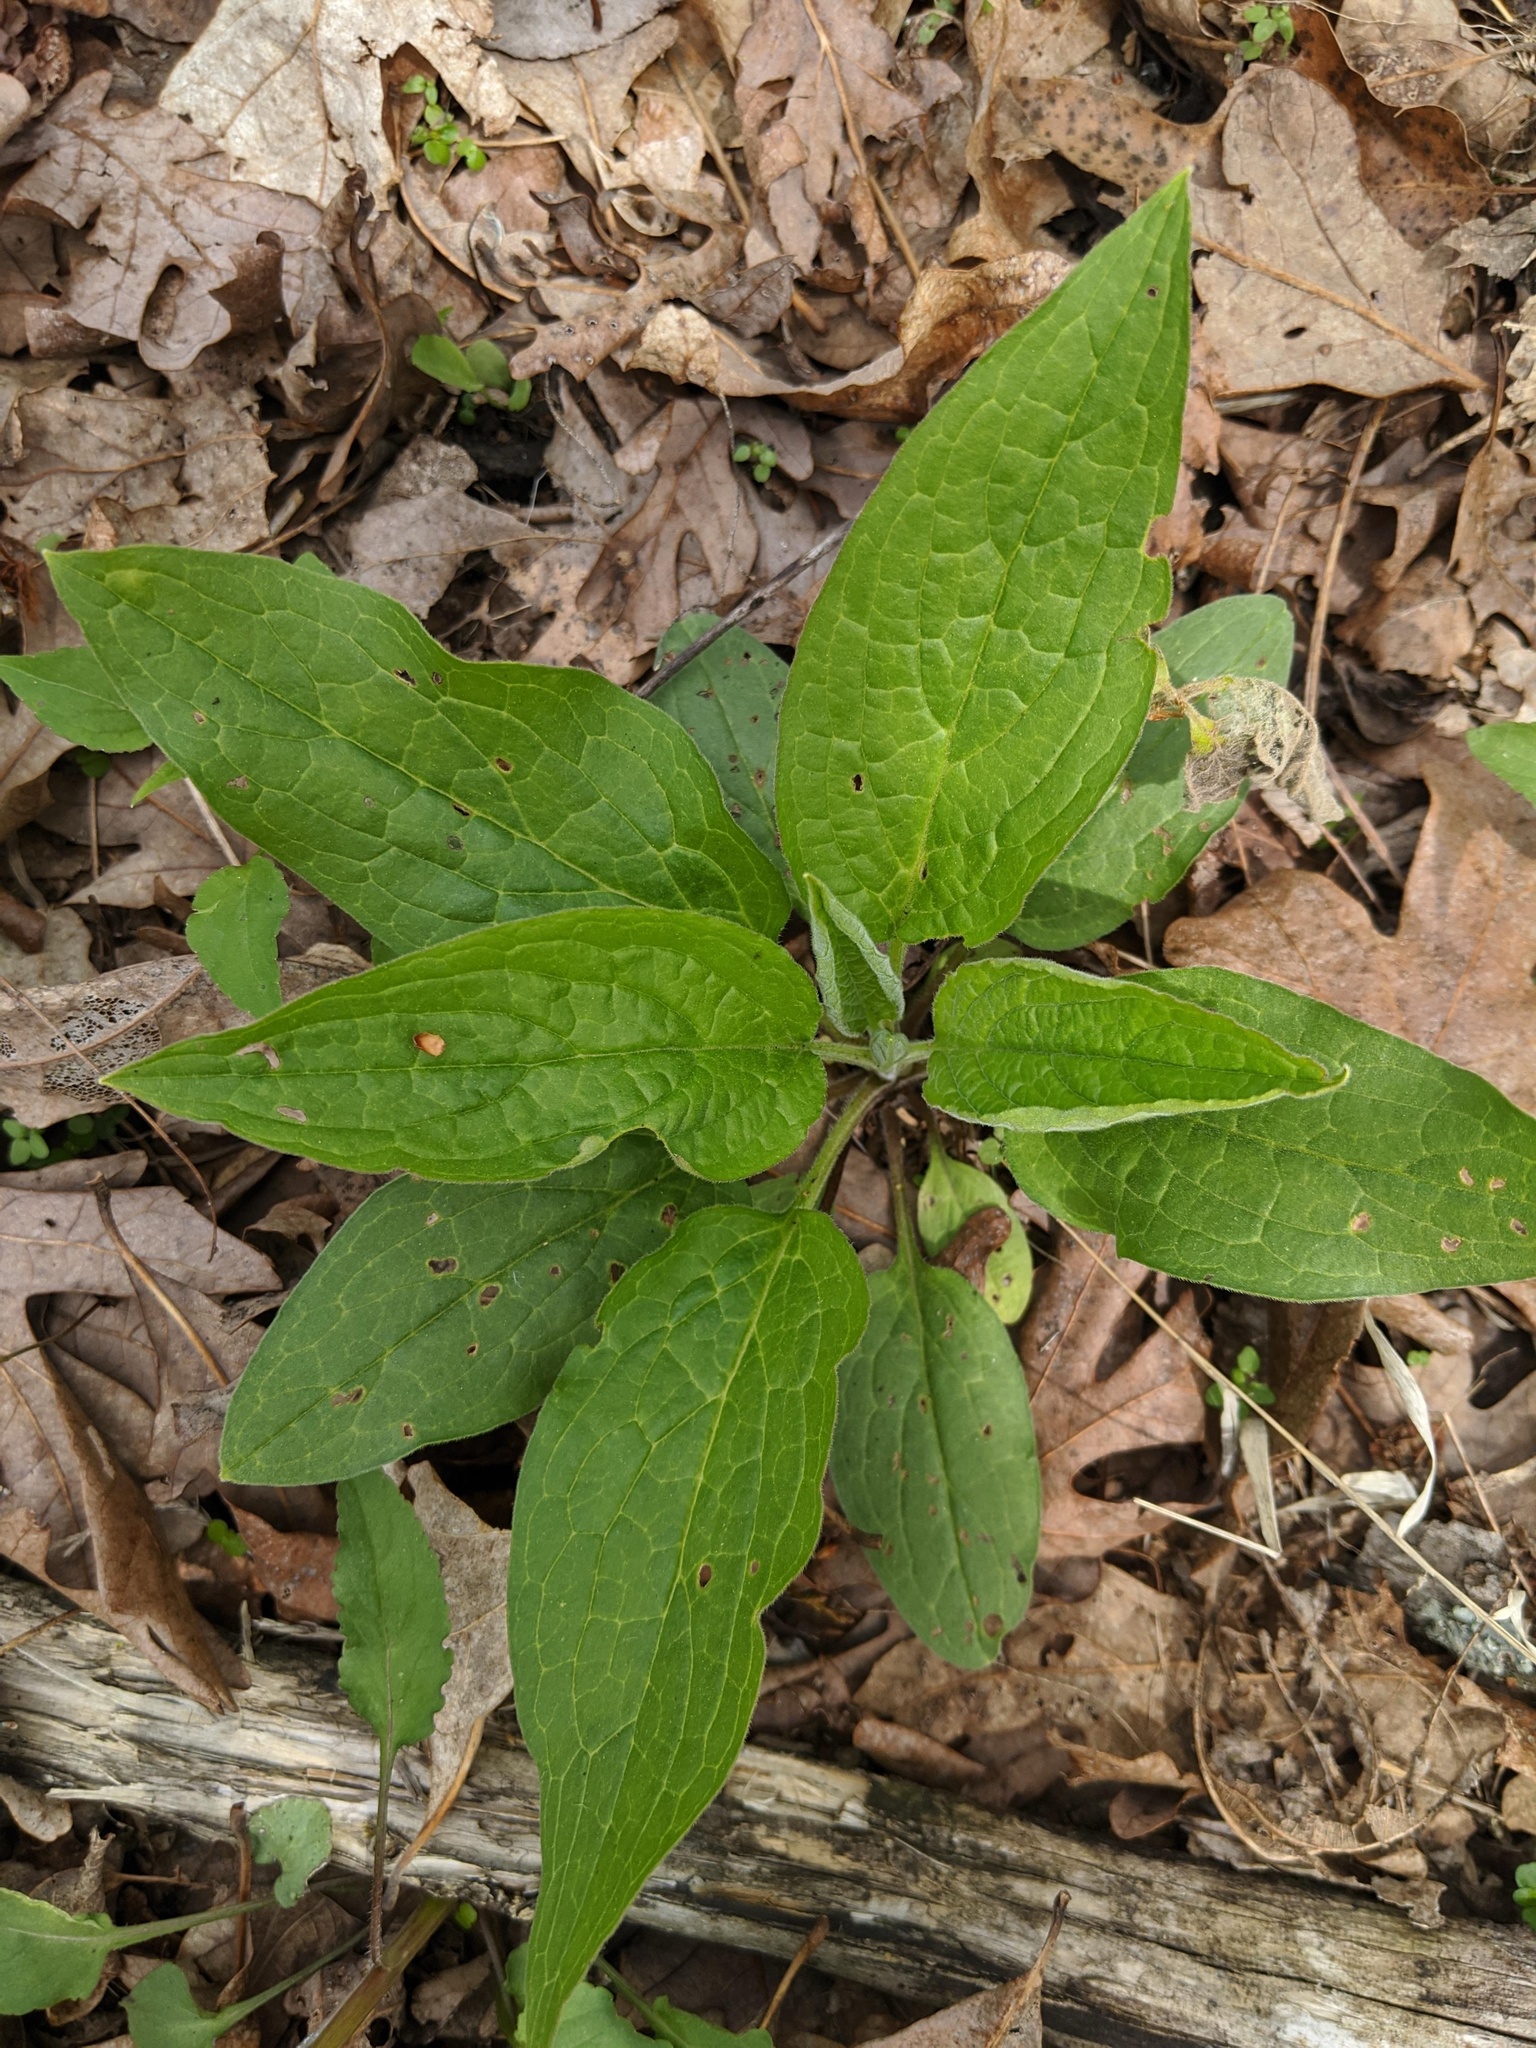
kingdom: Plantae
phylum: Tracheophyta
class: Magnoliopsida
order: Boraginales
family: Boraginaceae
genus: Hackelia
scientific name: Hackelia virginiana
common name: Beggar's-lice
